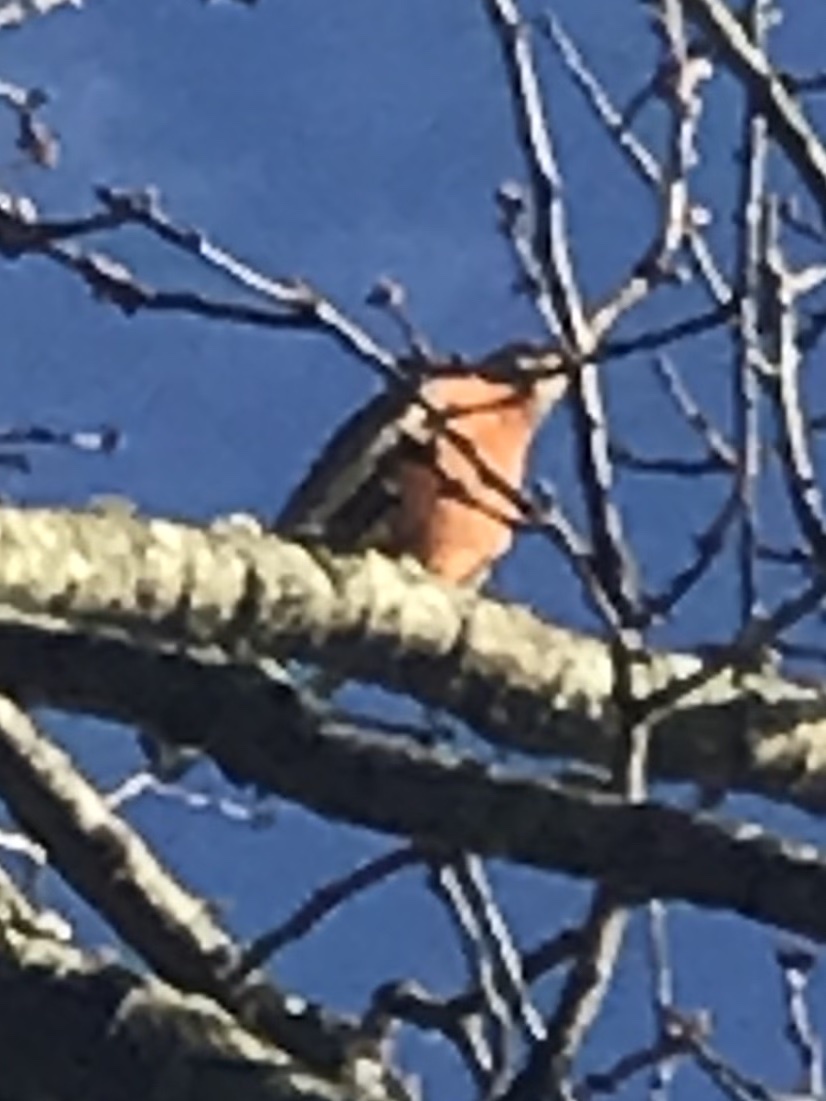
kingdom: Animalia
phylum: Chordata
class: Aves
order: Passeriformes
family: Turdidae
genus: Turdus
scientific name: Turdus migratorius
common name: American robin
